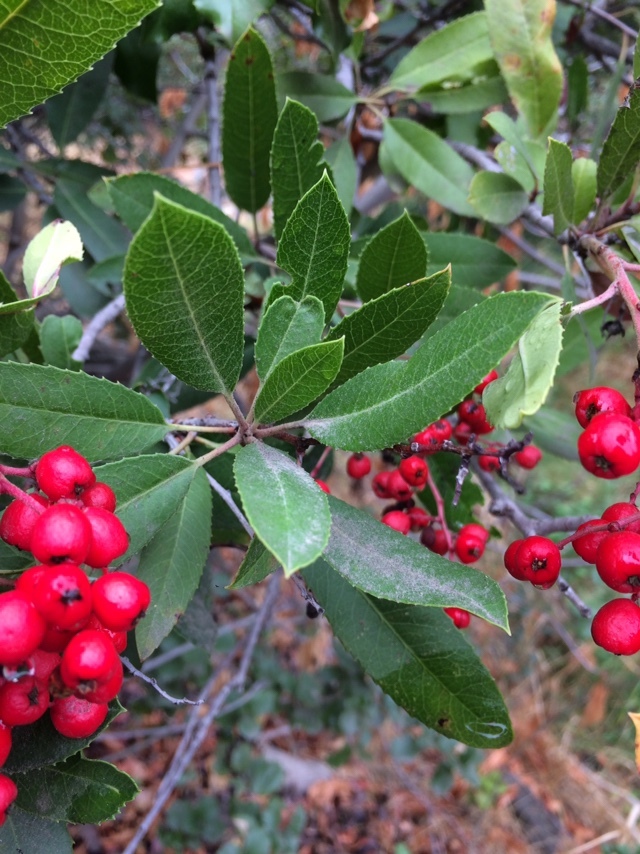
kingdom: Plantae
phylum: Tracheophyta
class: Magnoliopsida
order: Rosales
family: Rosaceae
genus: Heteromeles
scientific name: Heteromeles arbutifolia
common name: California-holly
